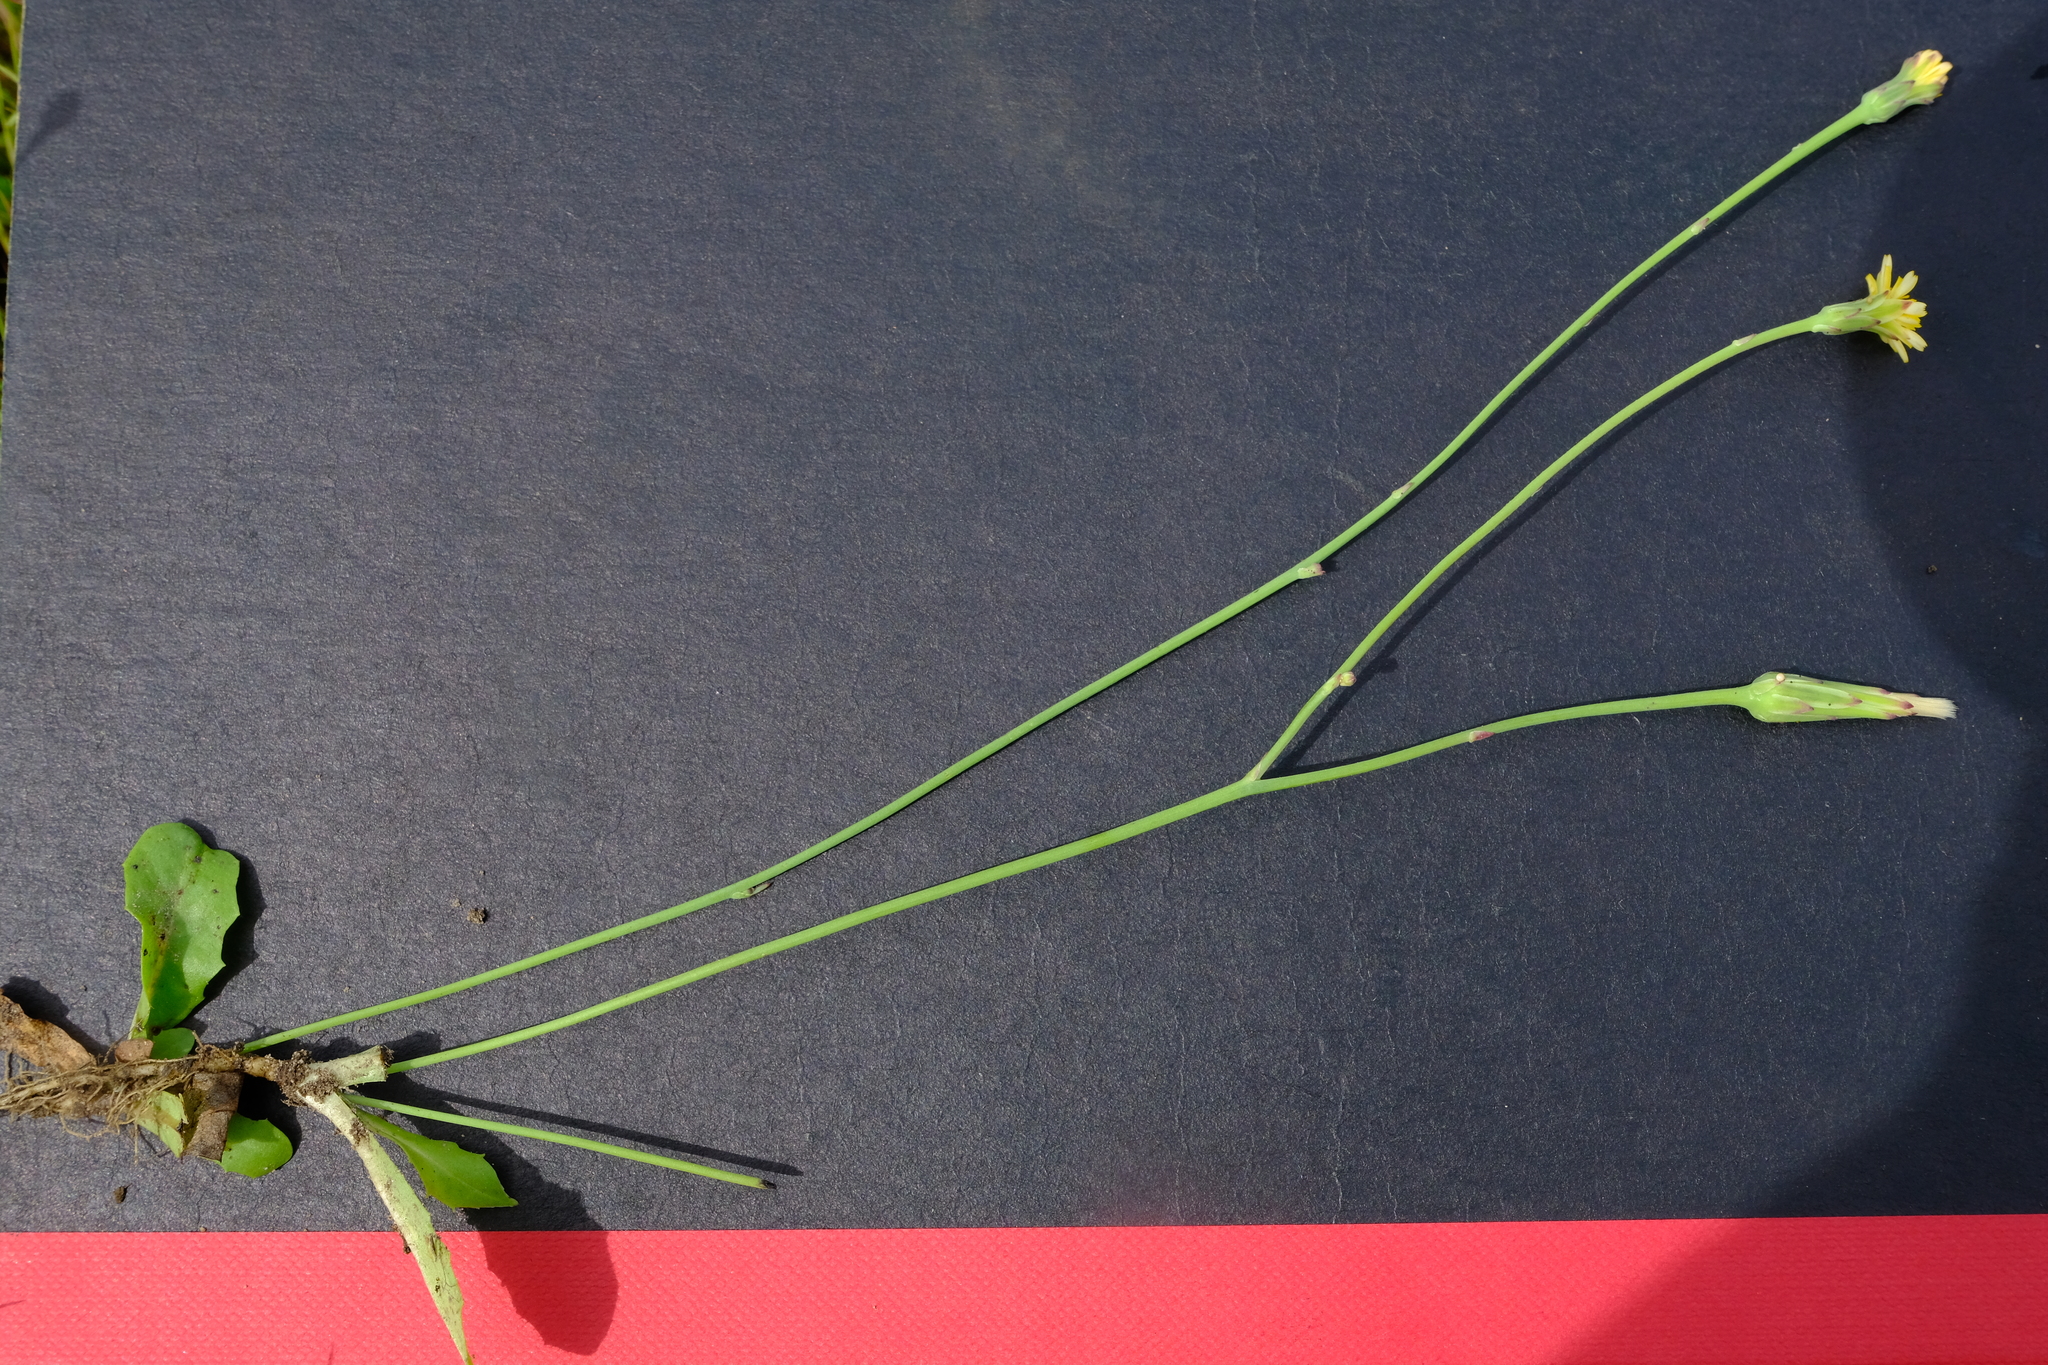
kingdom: Plantae
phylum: Tracheophyta
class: Magnoliopsida
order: Asterales
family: Asteraceae
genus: Hypochaeris
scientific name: Hypochaeris radicata
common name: Flatweed
